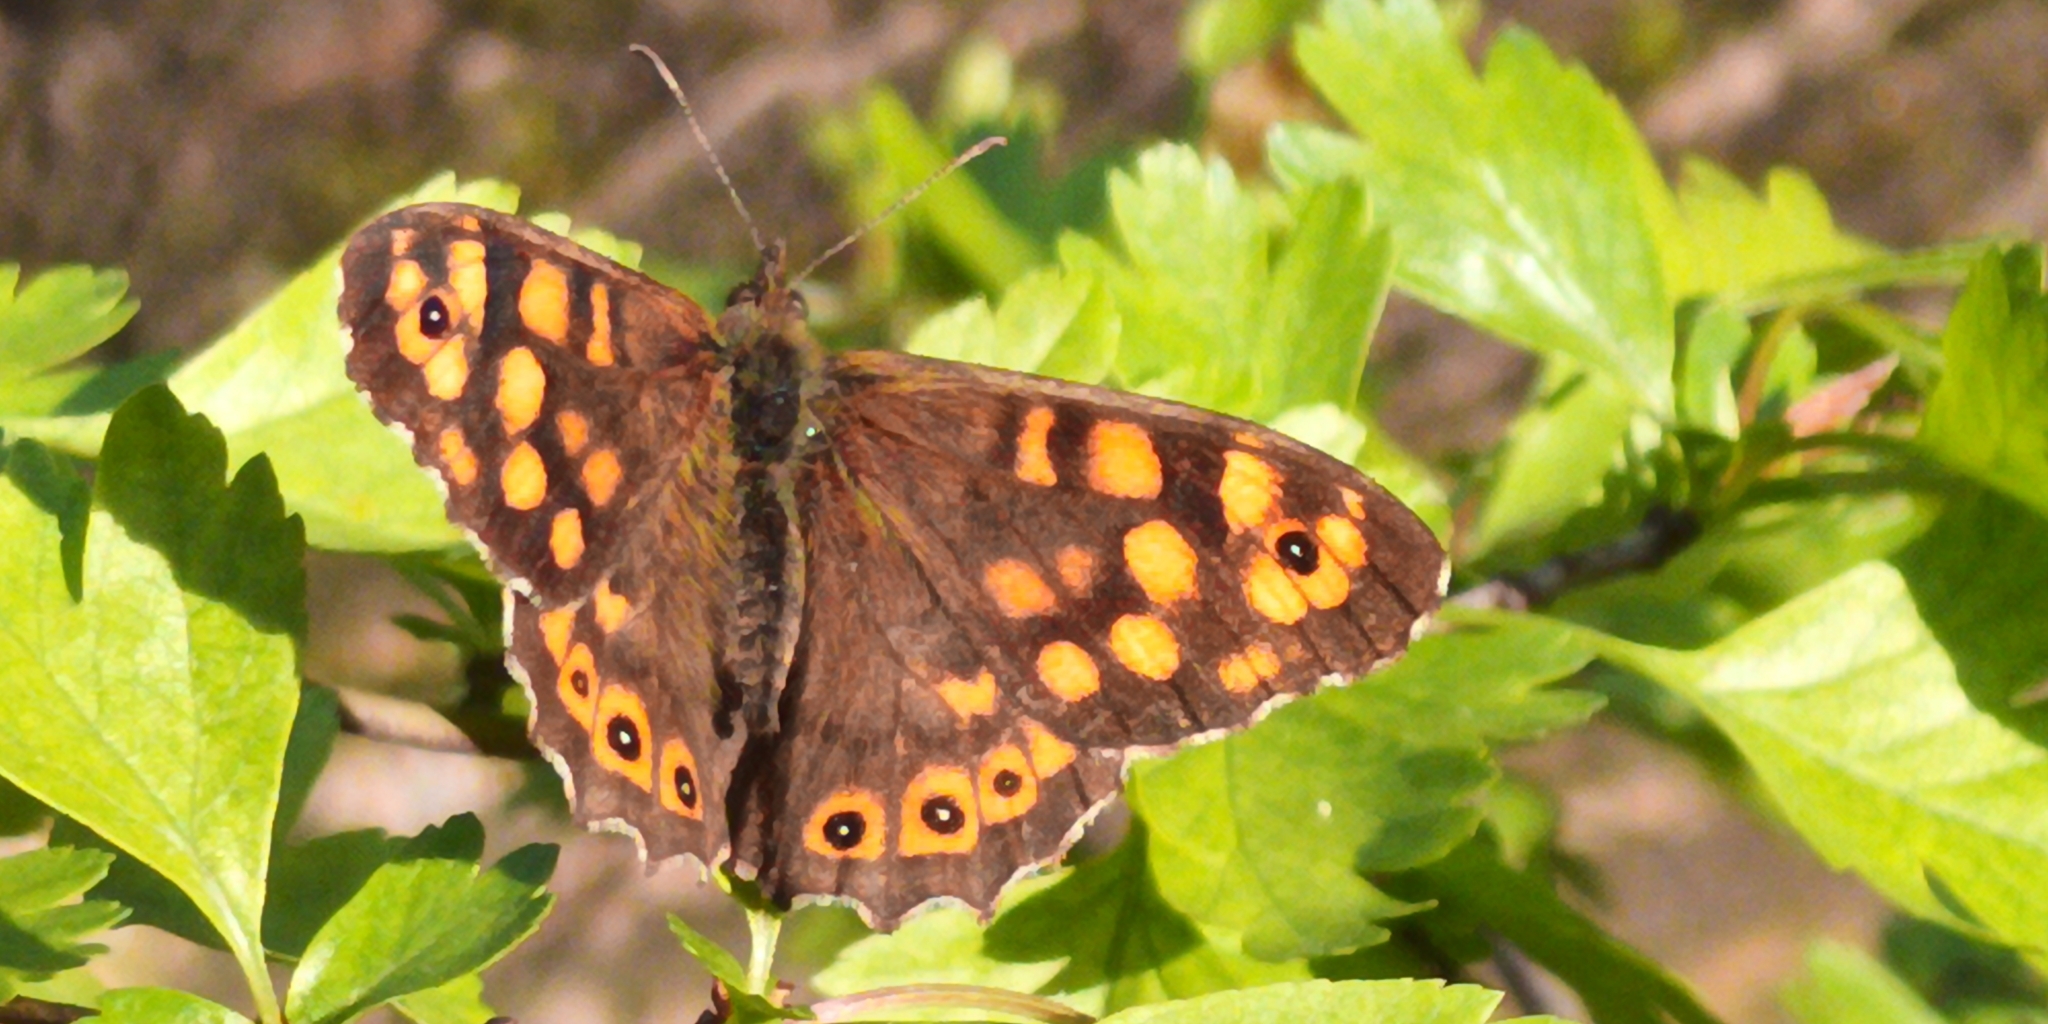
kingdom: Animalia
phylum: Arthropoda
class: Insecta
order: Lepidoptera
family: Nymphalidae
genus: Pararge
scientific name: Pararge aegeria
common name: Speckled wood
